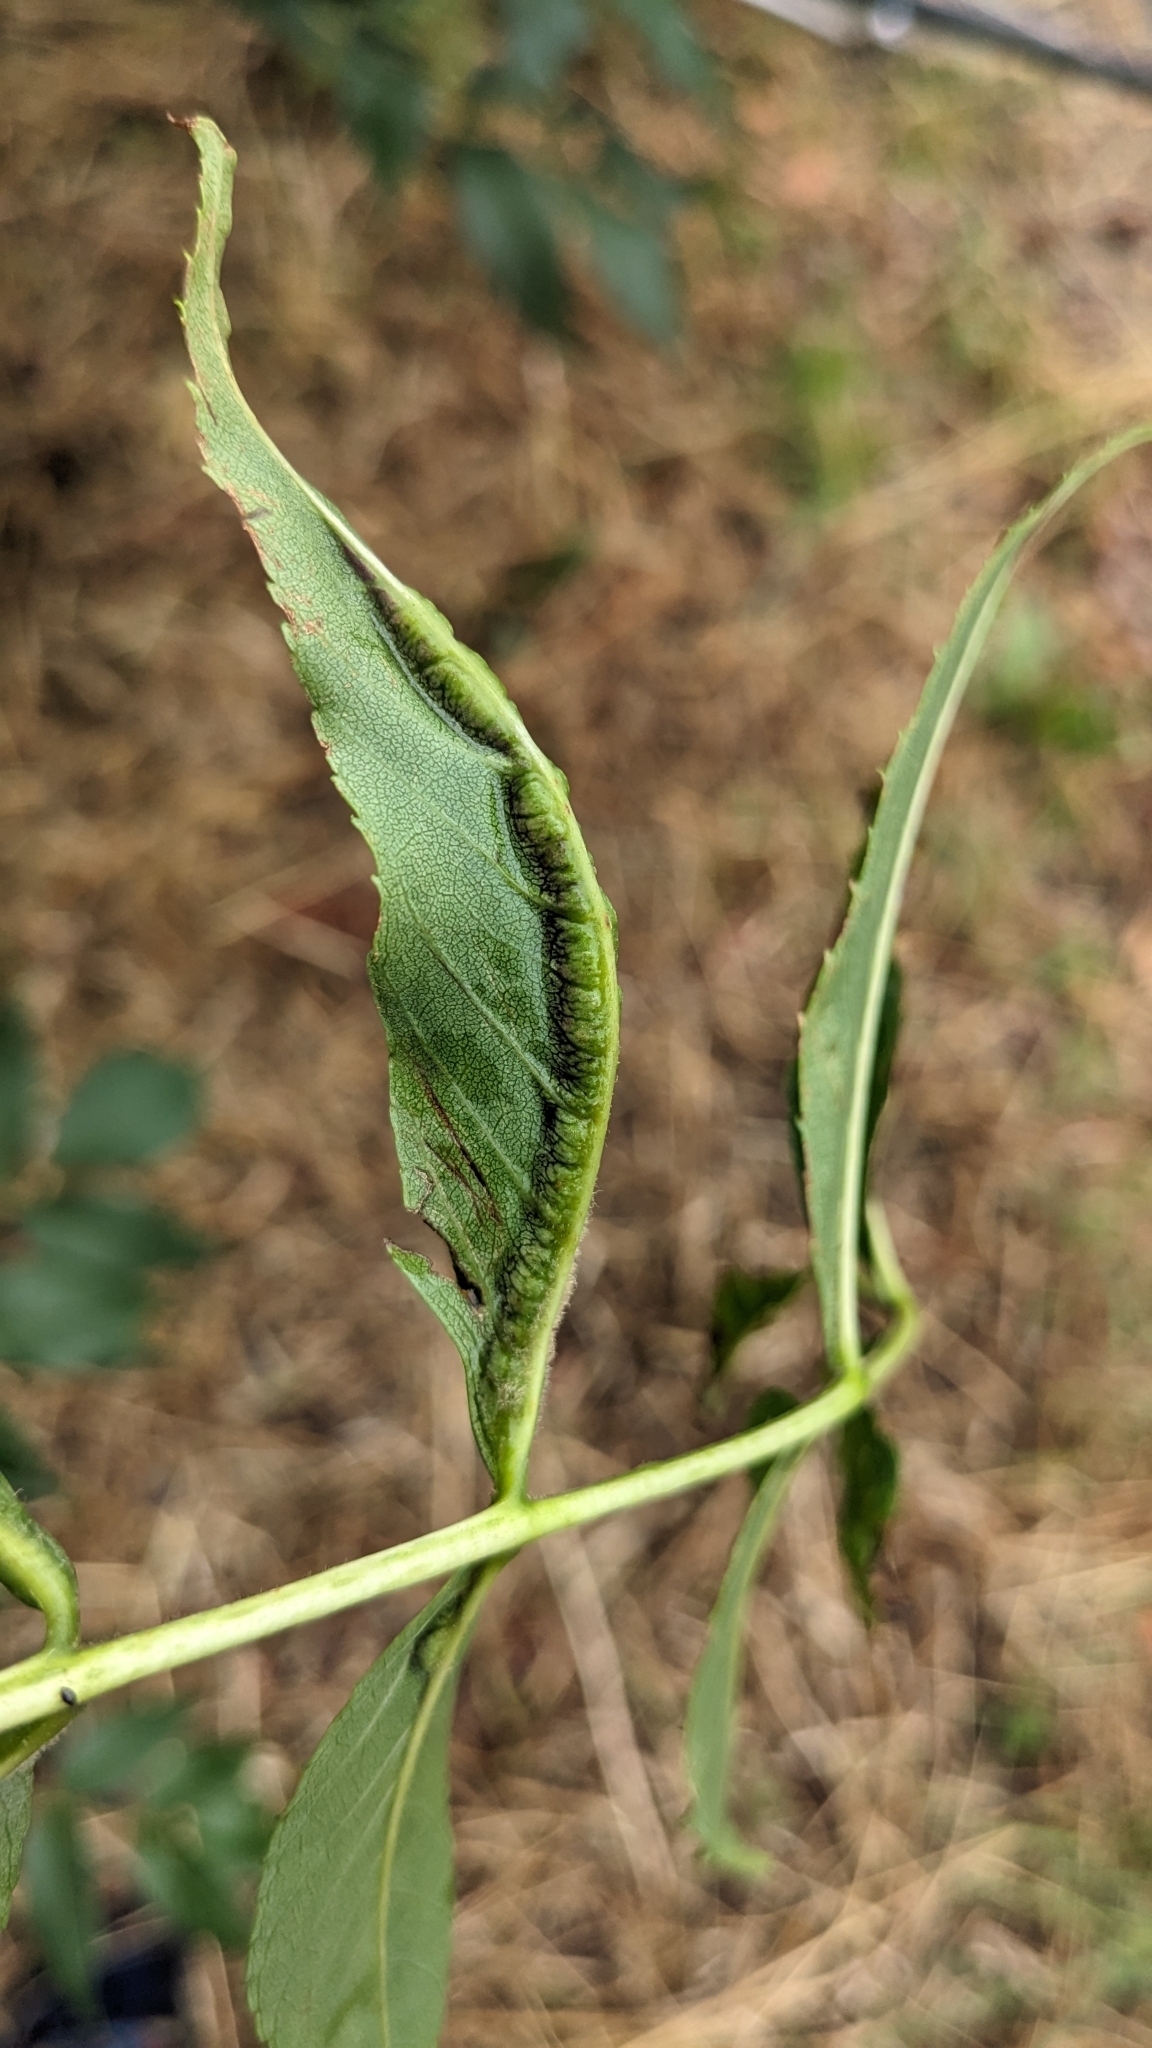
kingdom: Animalia
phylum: Arthropoda
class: Insecta
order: Diptera
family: Cecidomyiidae
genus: Dasineura
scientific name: Dasineura fraxini
